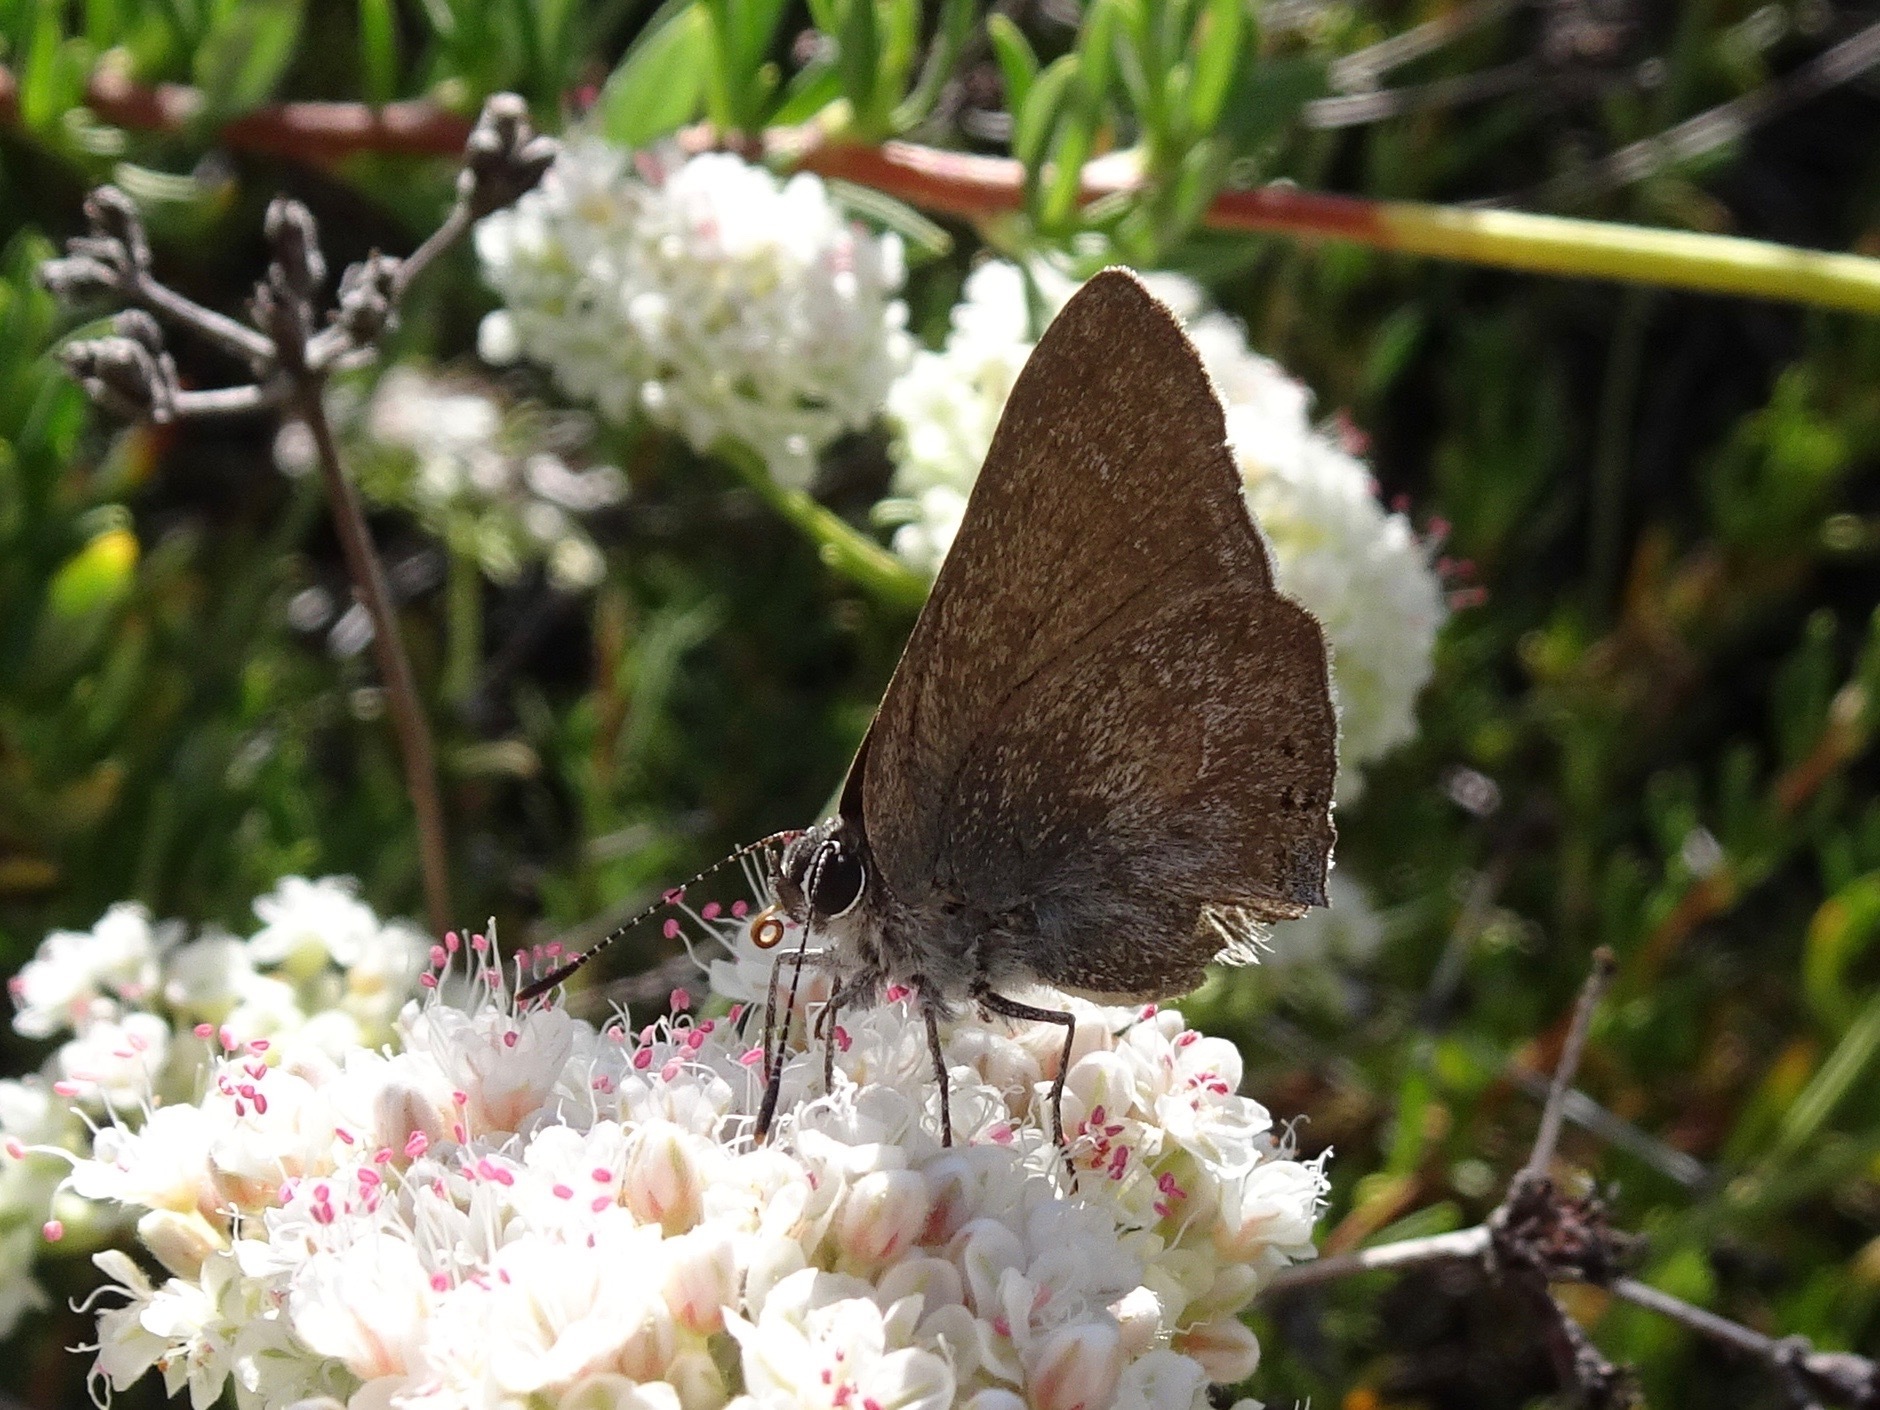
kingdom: Animalia
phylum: Arthropoda
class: Insecta
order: Lepidoptera
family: Lycaenidae
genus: Thecla
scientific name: Thecla tetra
